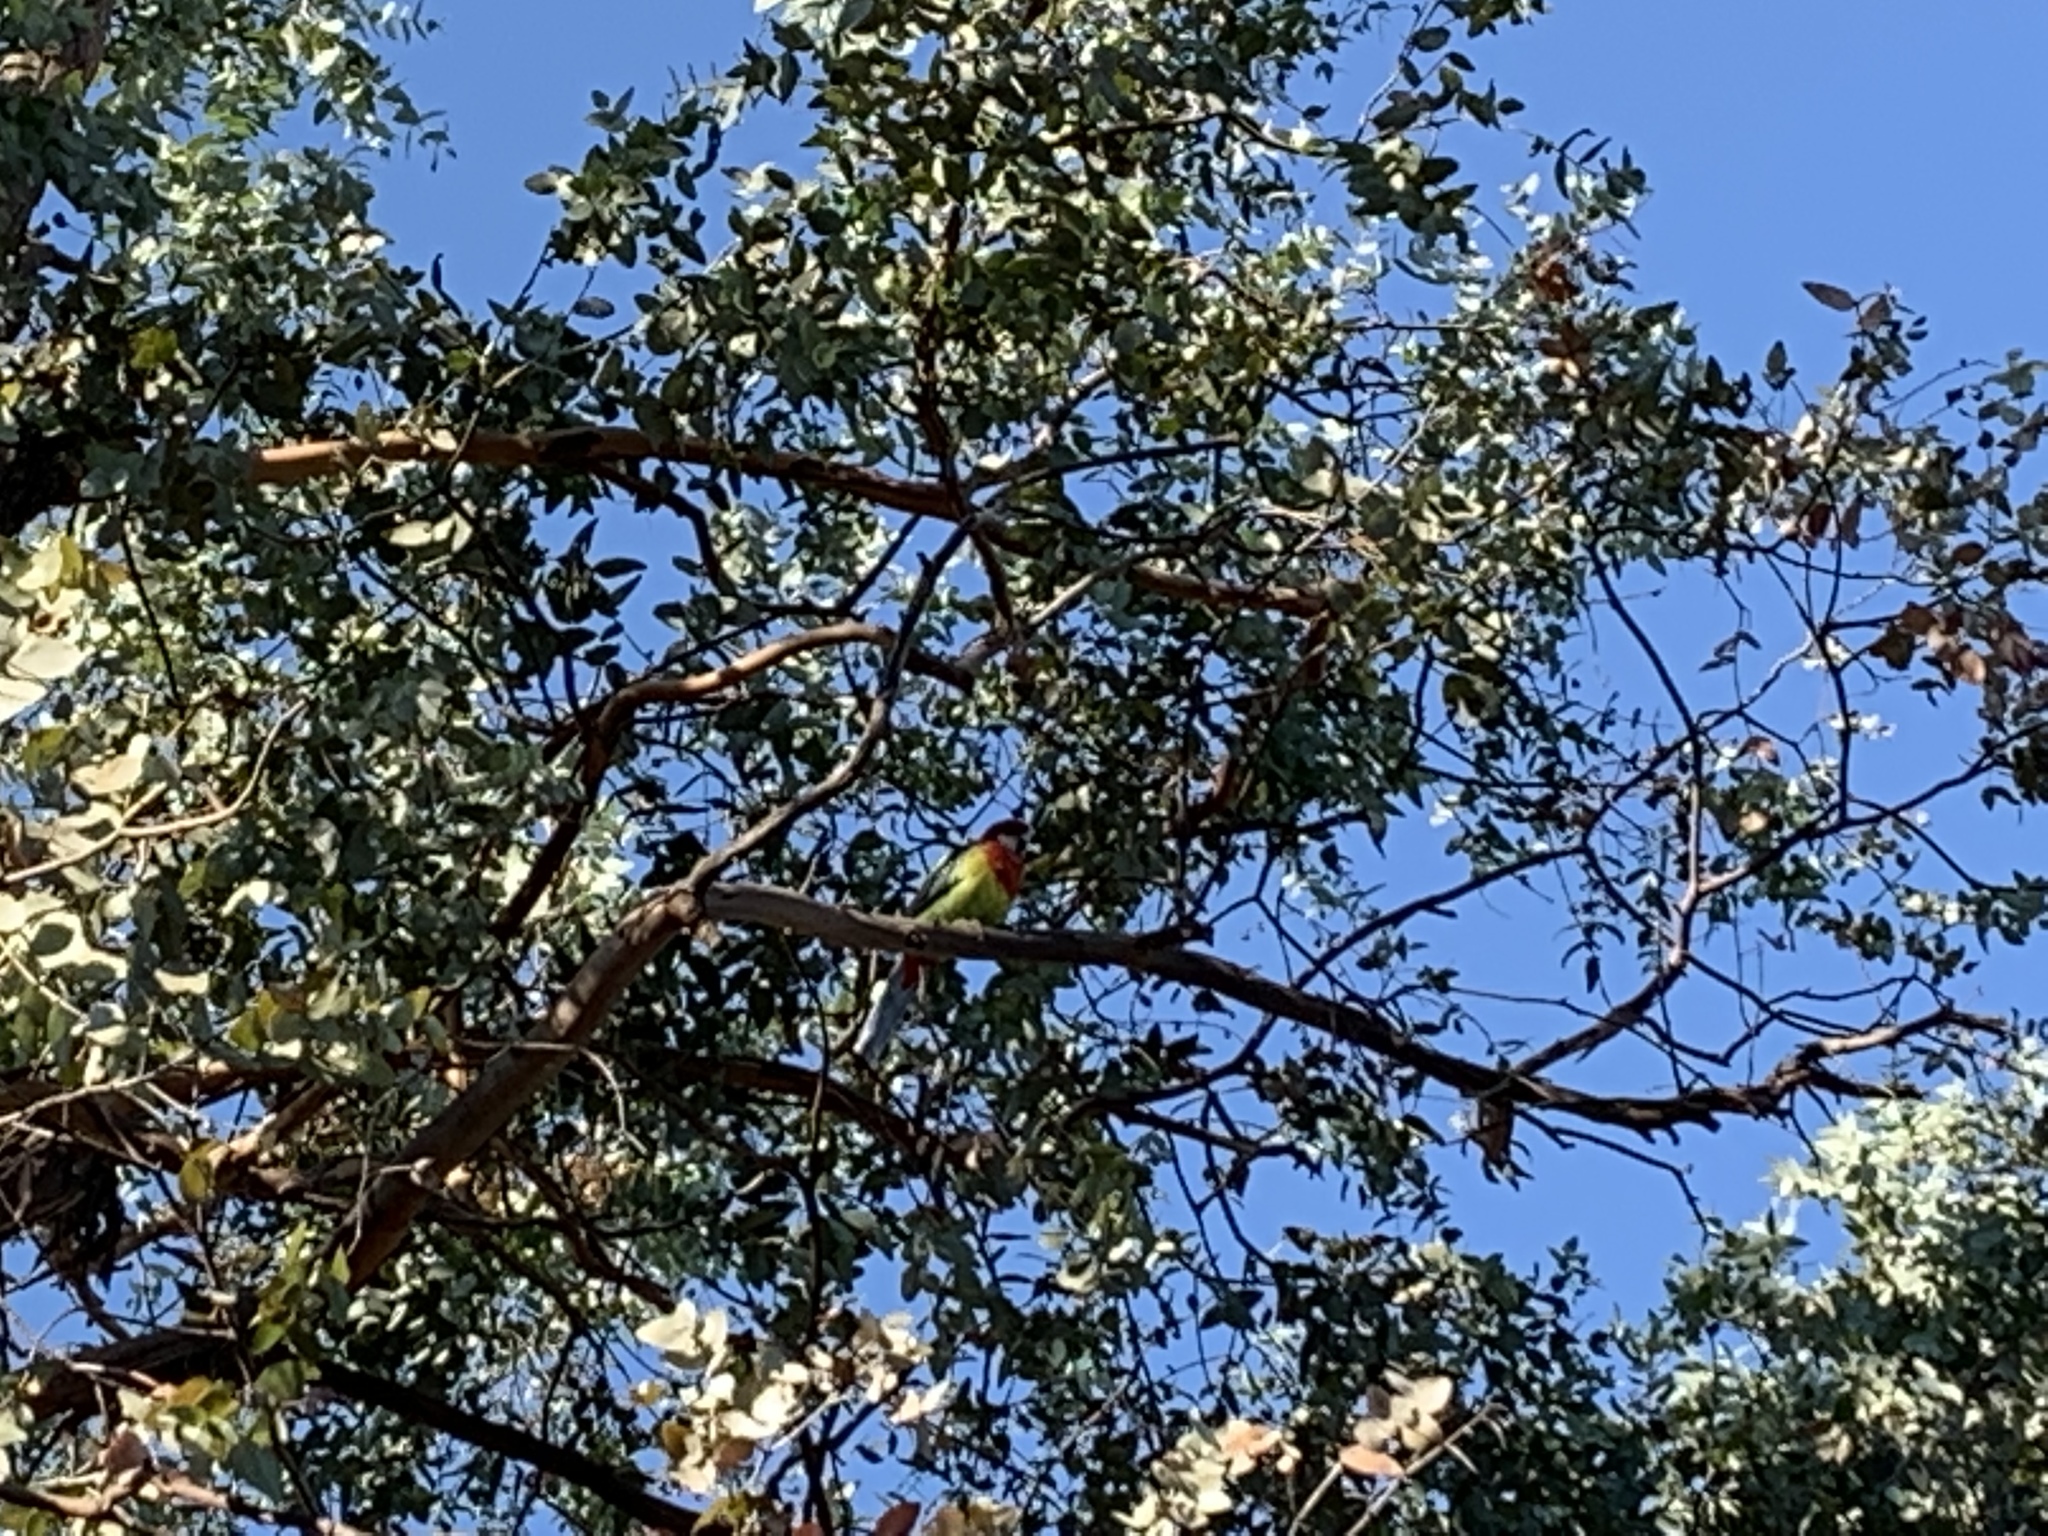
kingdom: Animalia
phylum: Chordata
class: Aves
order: Psittaciformes
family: Psittacidae
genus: Platycercus
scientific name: Platycercus eximius
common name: Eastern rosella
